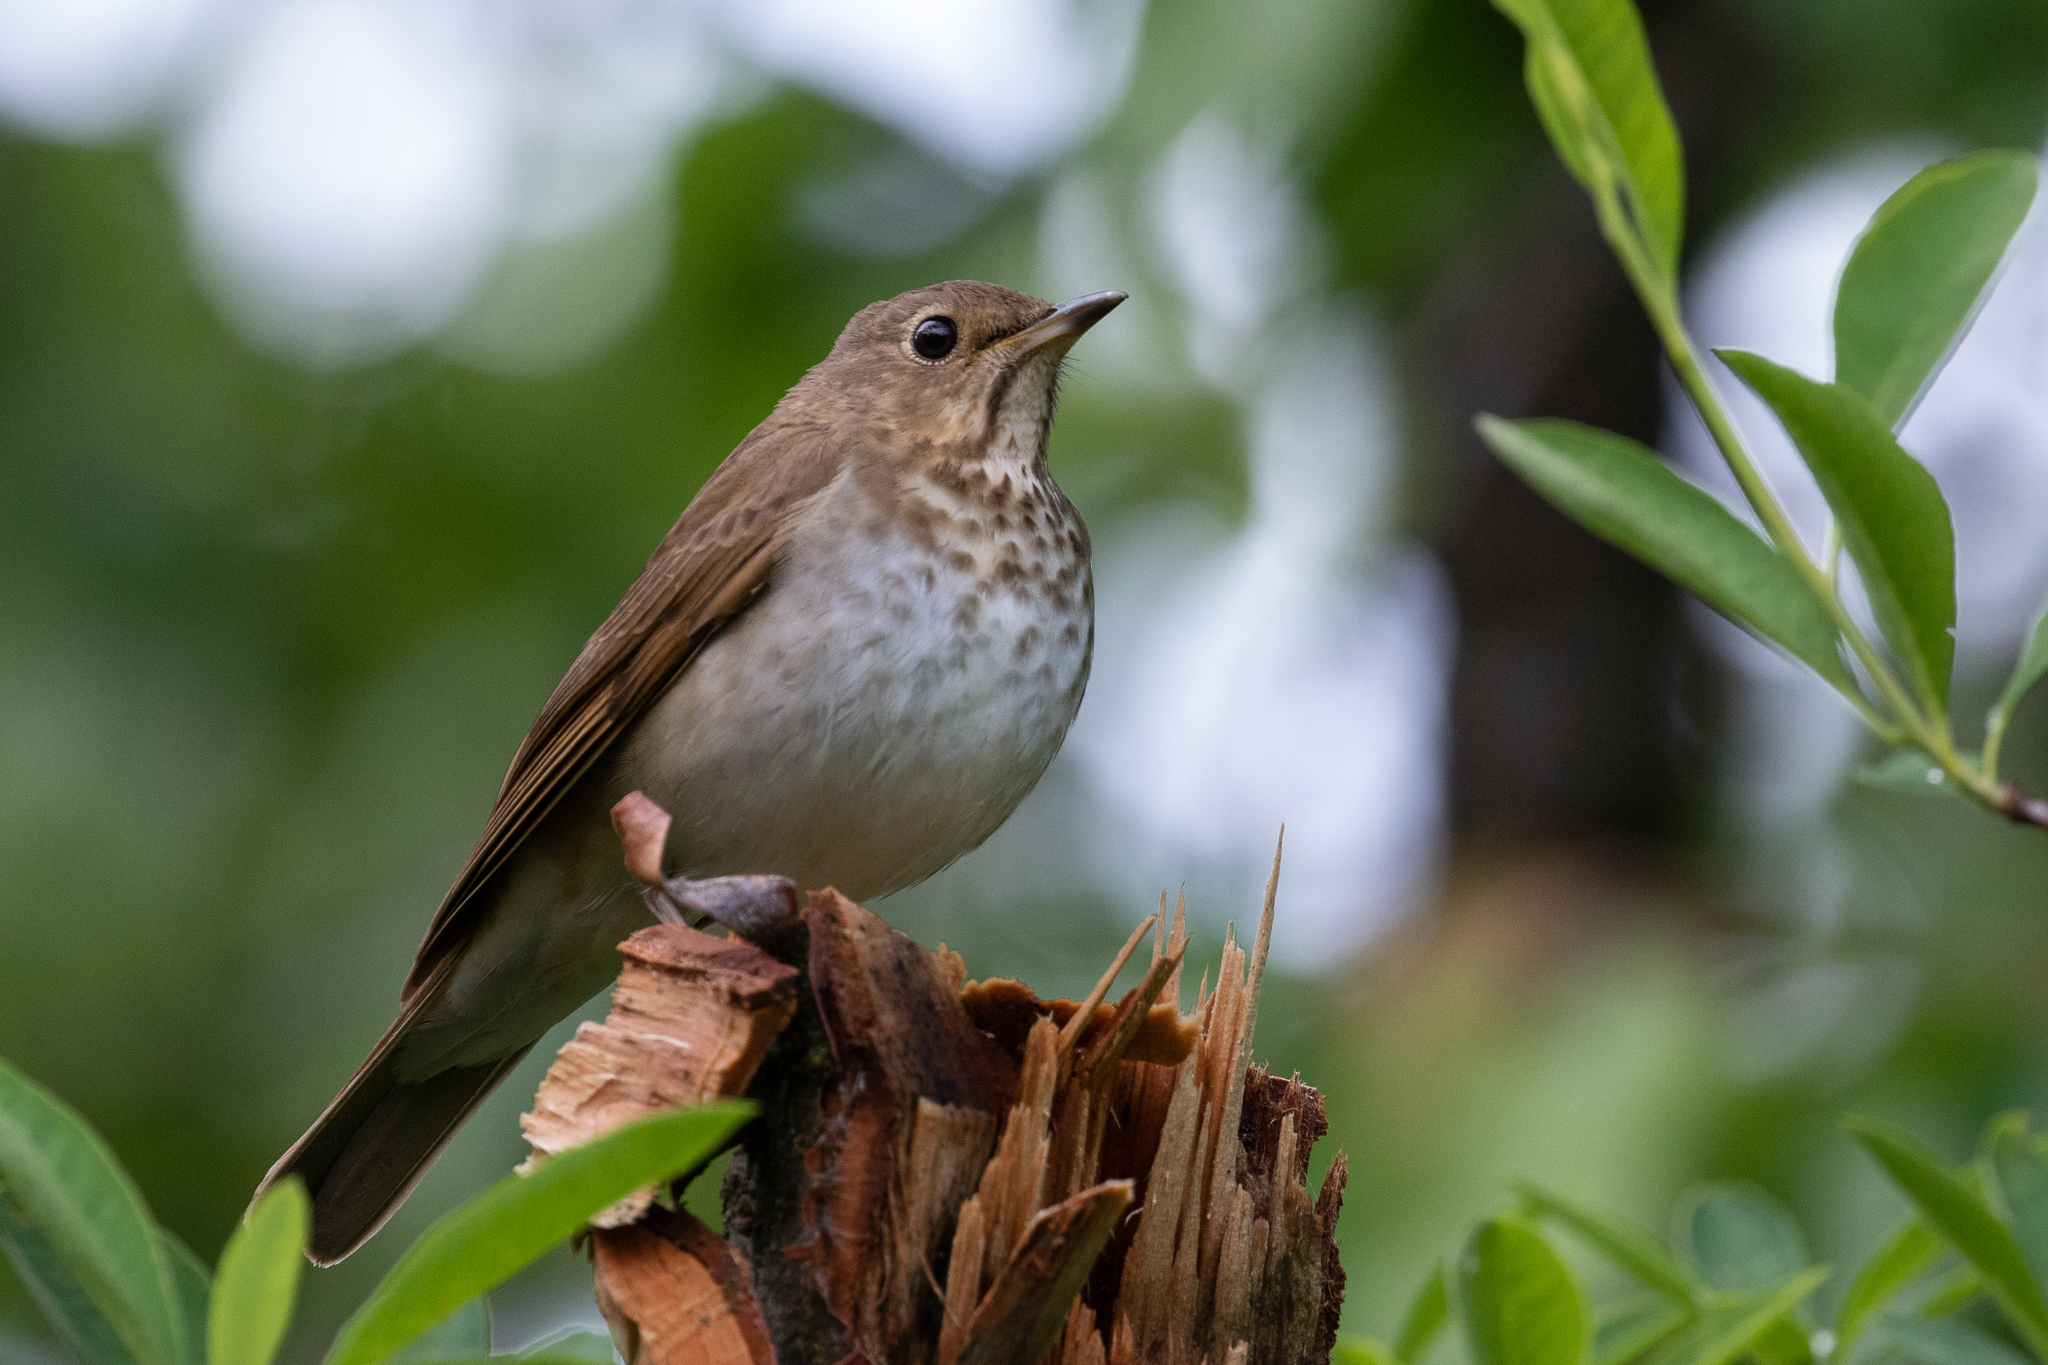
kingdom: Animalia
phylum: Chordata
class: Aves
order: Passeriformes
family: Turdidae
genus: Catharus
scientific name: Catharus ustulatus
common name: Swainson's thrush
